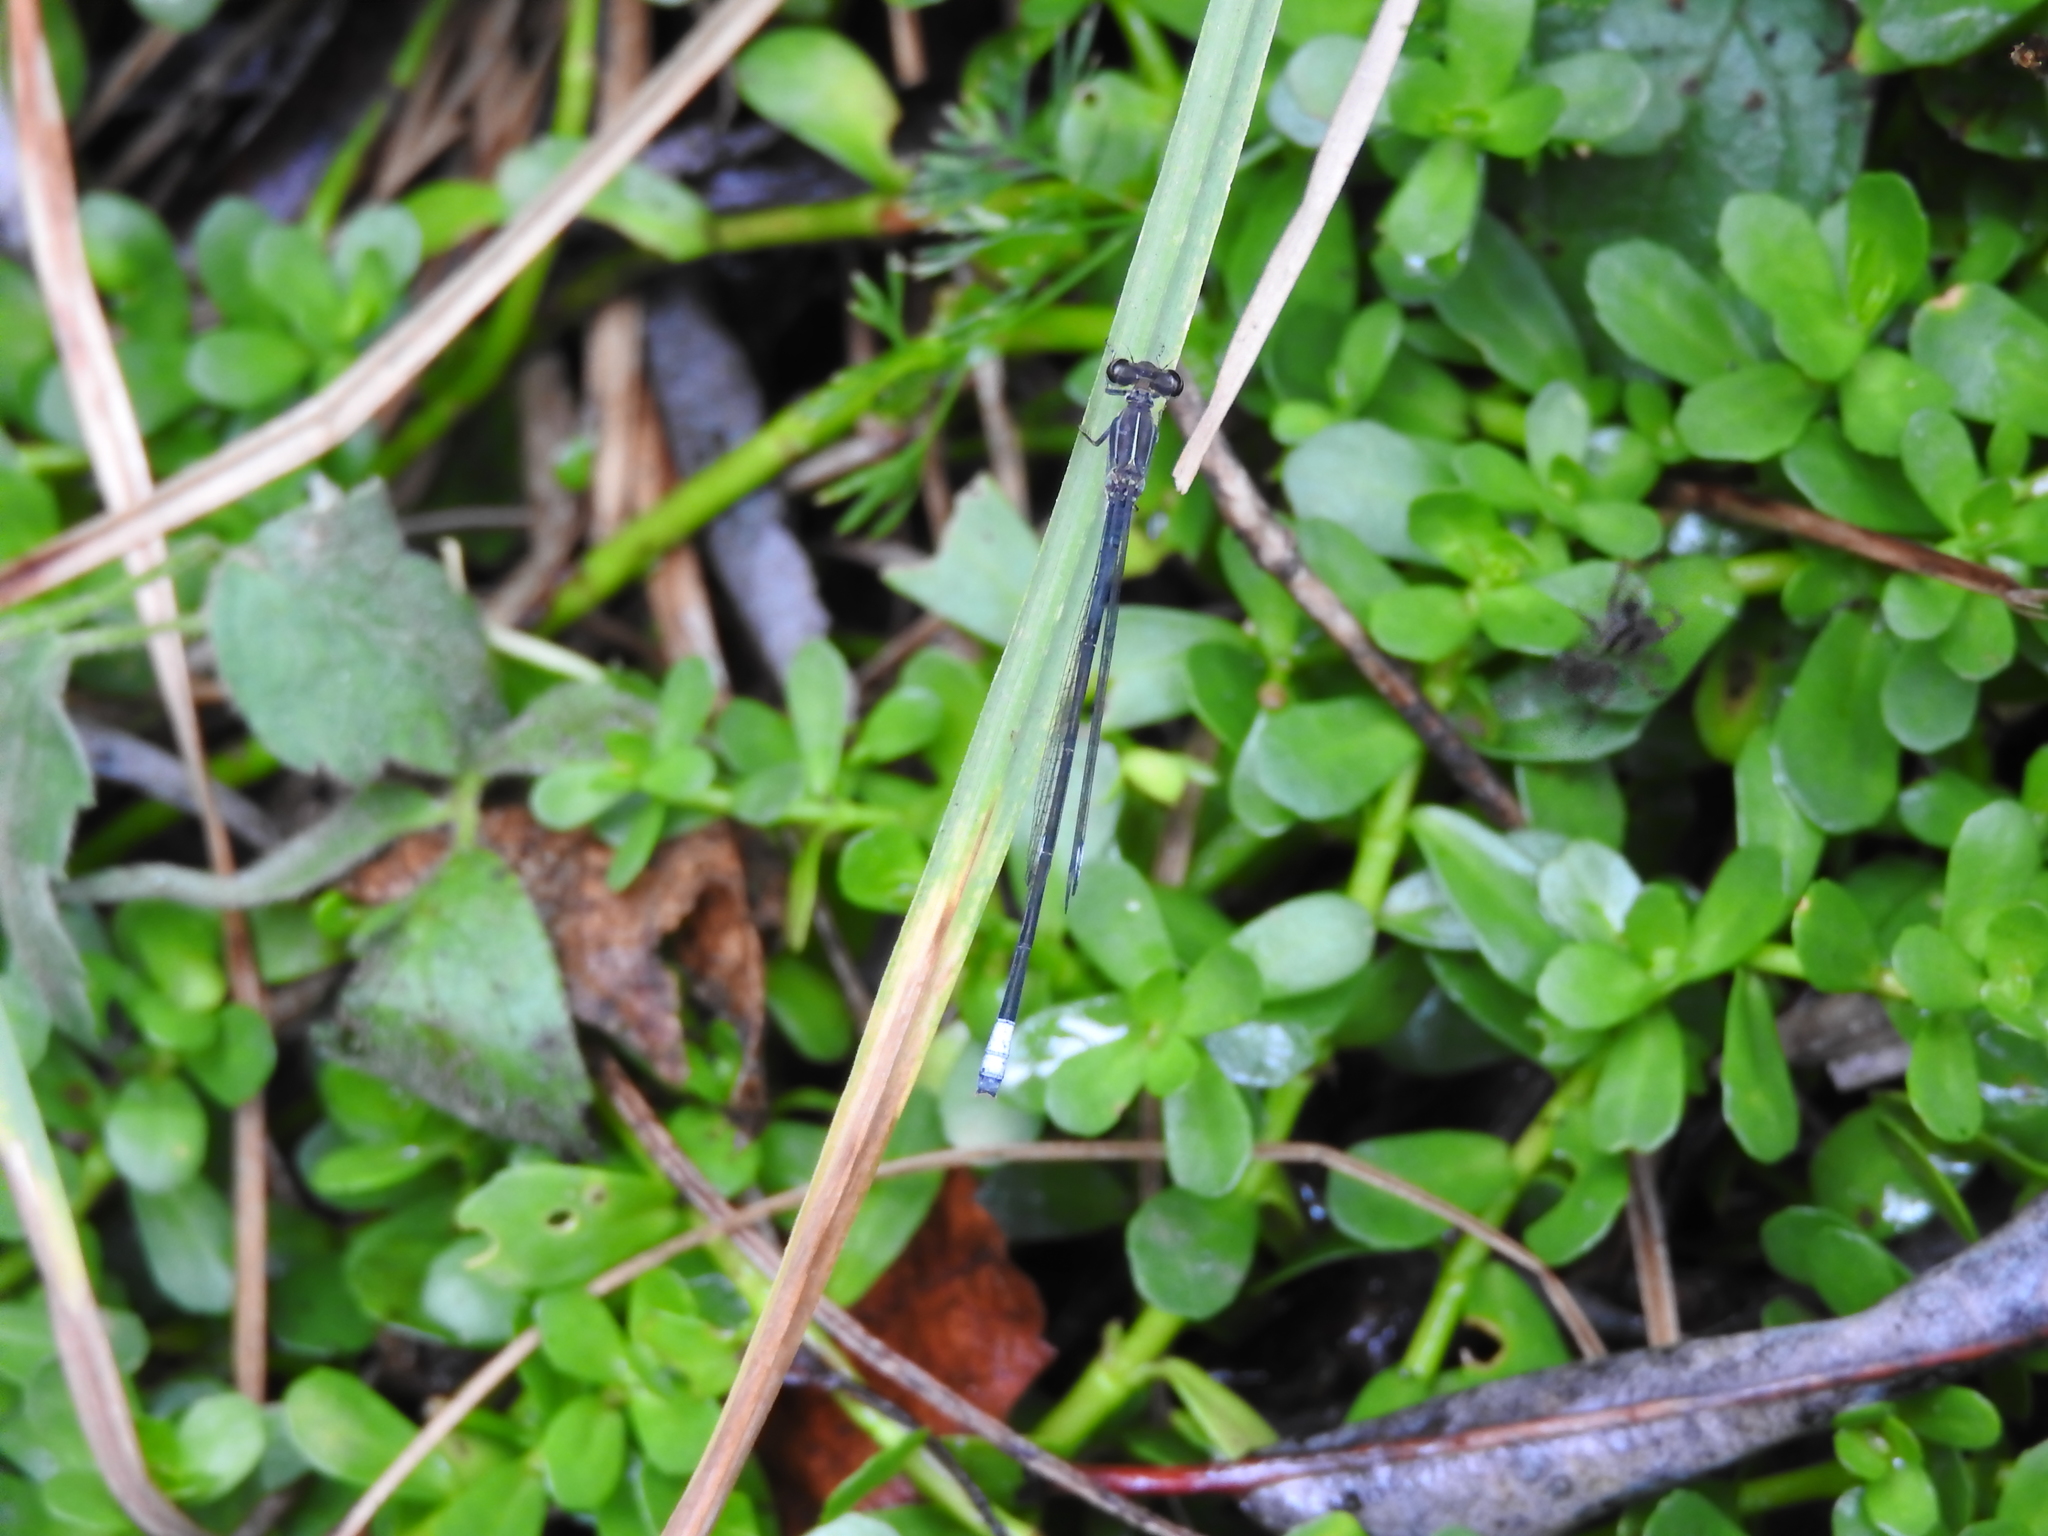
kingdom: Animalia
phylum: Arthropoda
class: Insecta
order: Odonata
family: Coenagrionidae
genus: Apanisagrion
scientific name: Apanisagrion lais
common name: Black-and-white damsel
